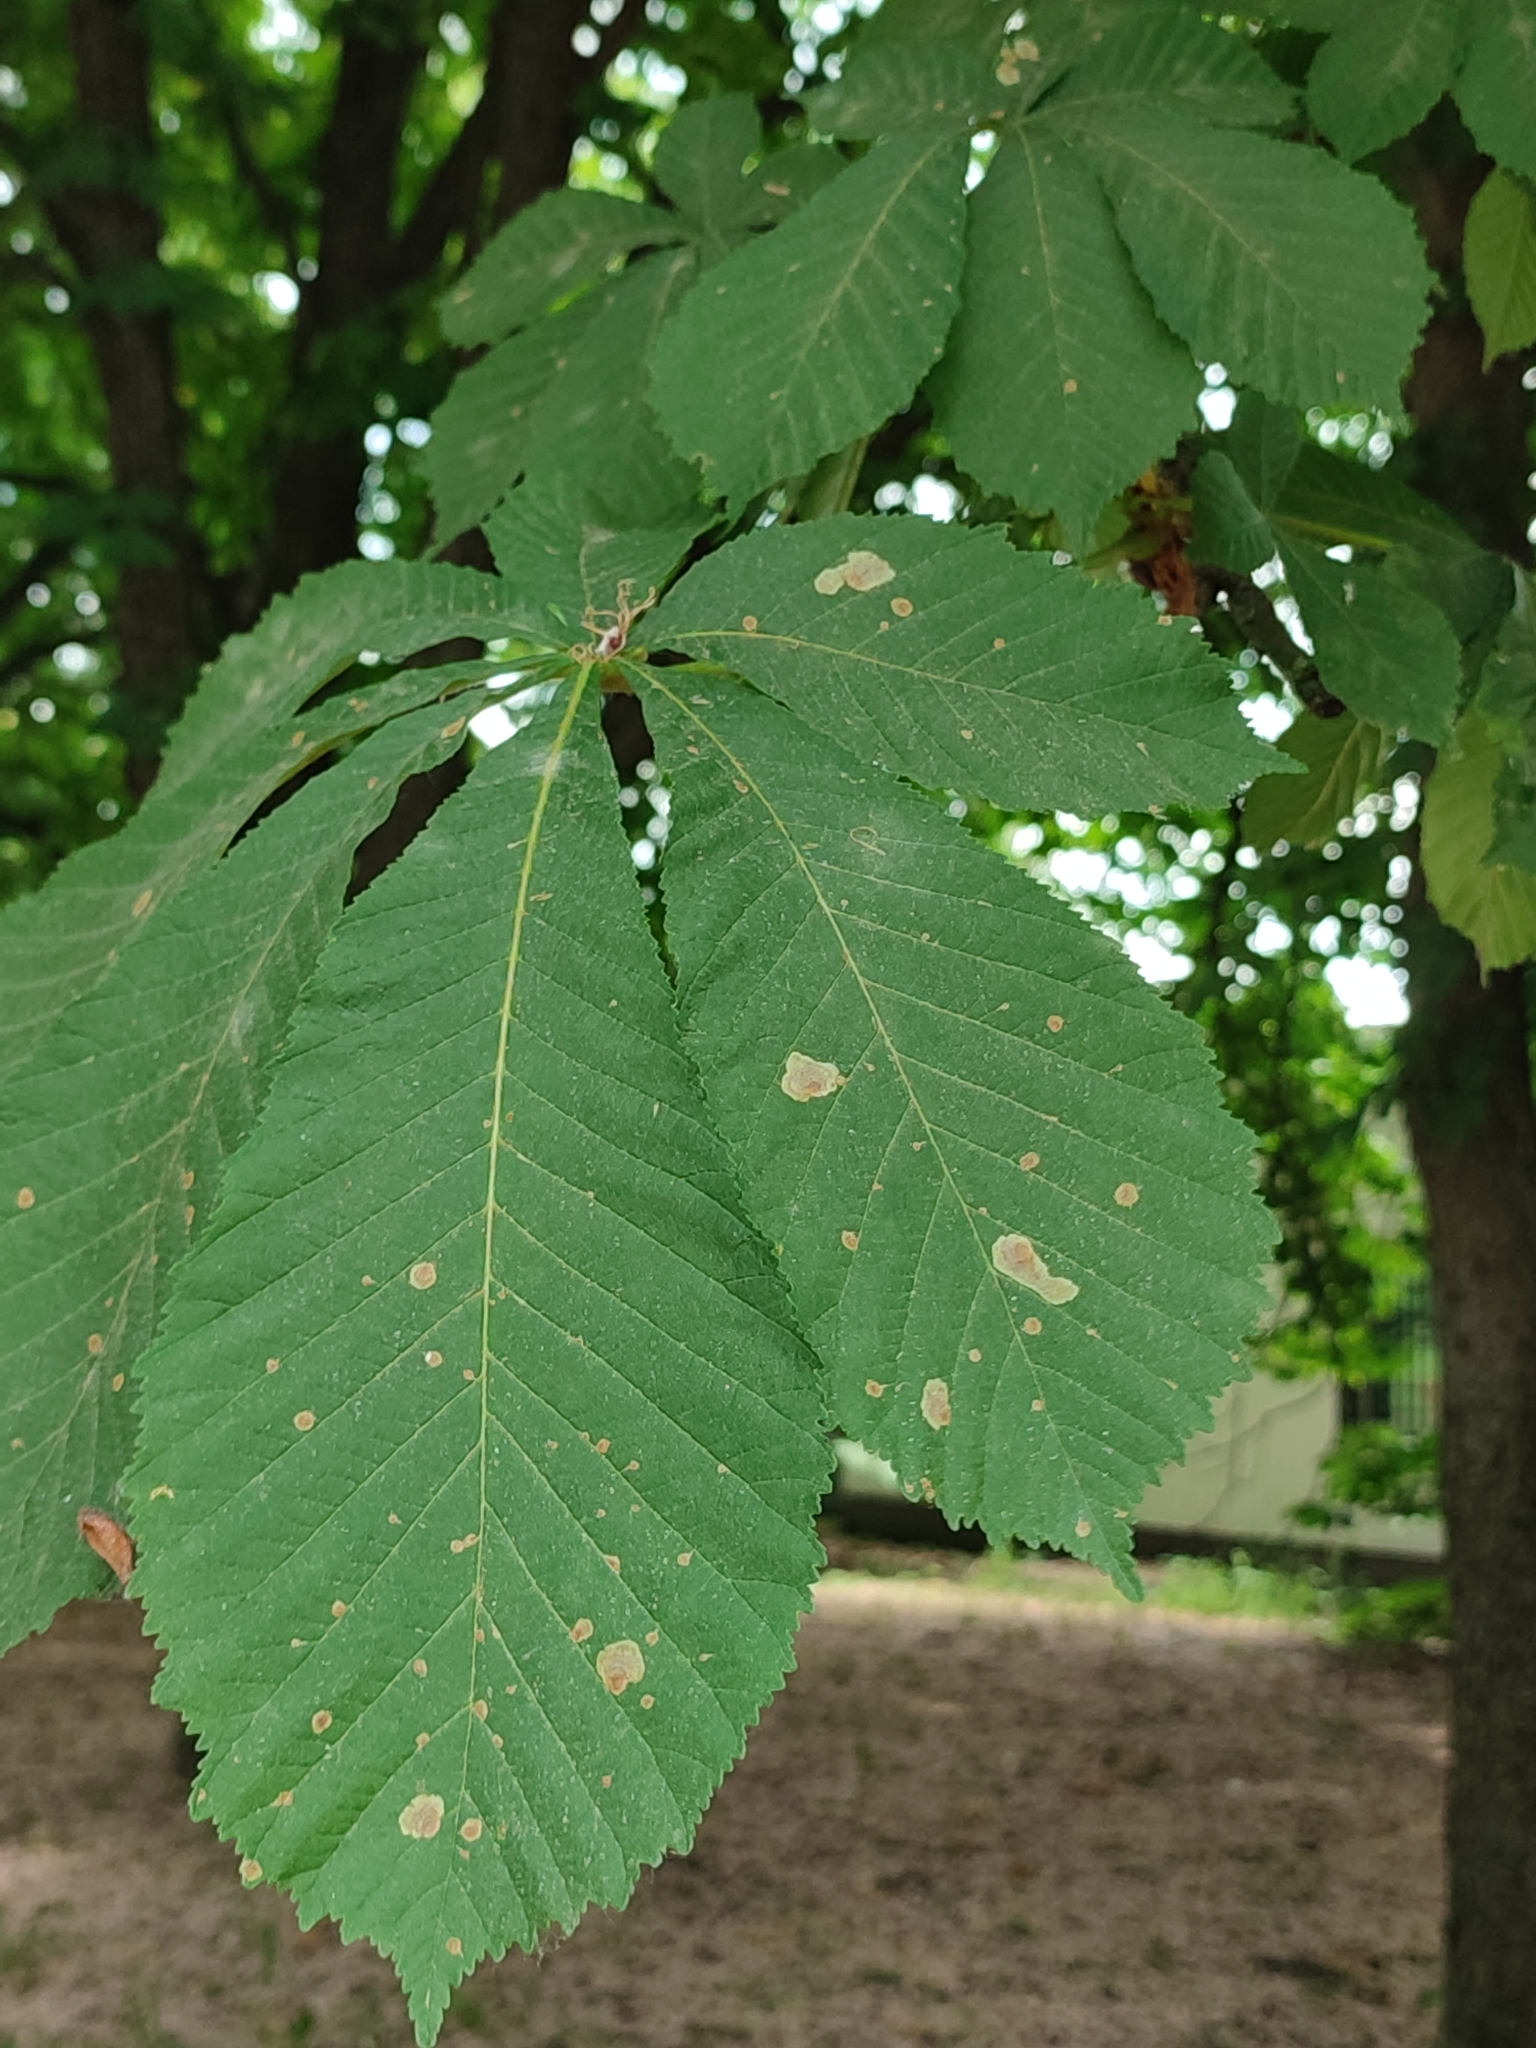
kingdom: Animalia
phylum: Arthropoda
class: Insecta
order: Lepidoptera
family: Gracillariidae
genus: Cameraria
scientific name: Cameraria ohridella
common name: Horse-chestnut leaf-miner
